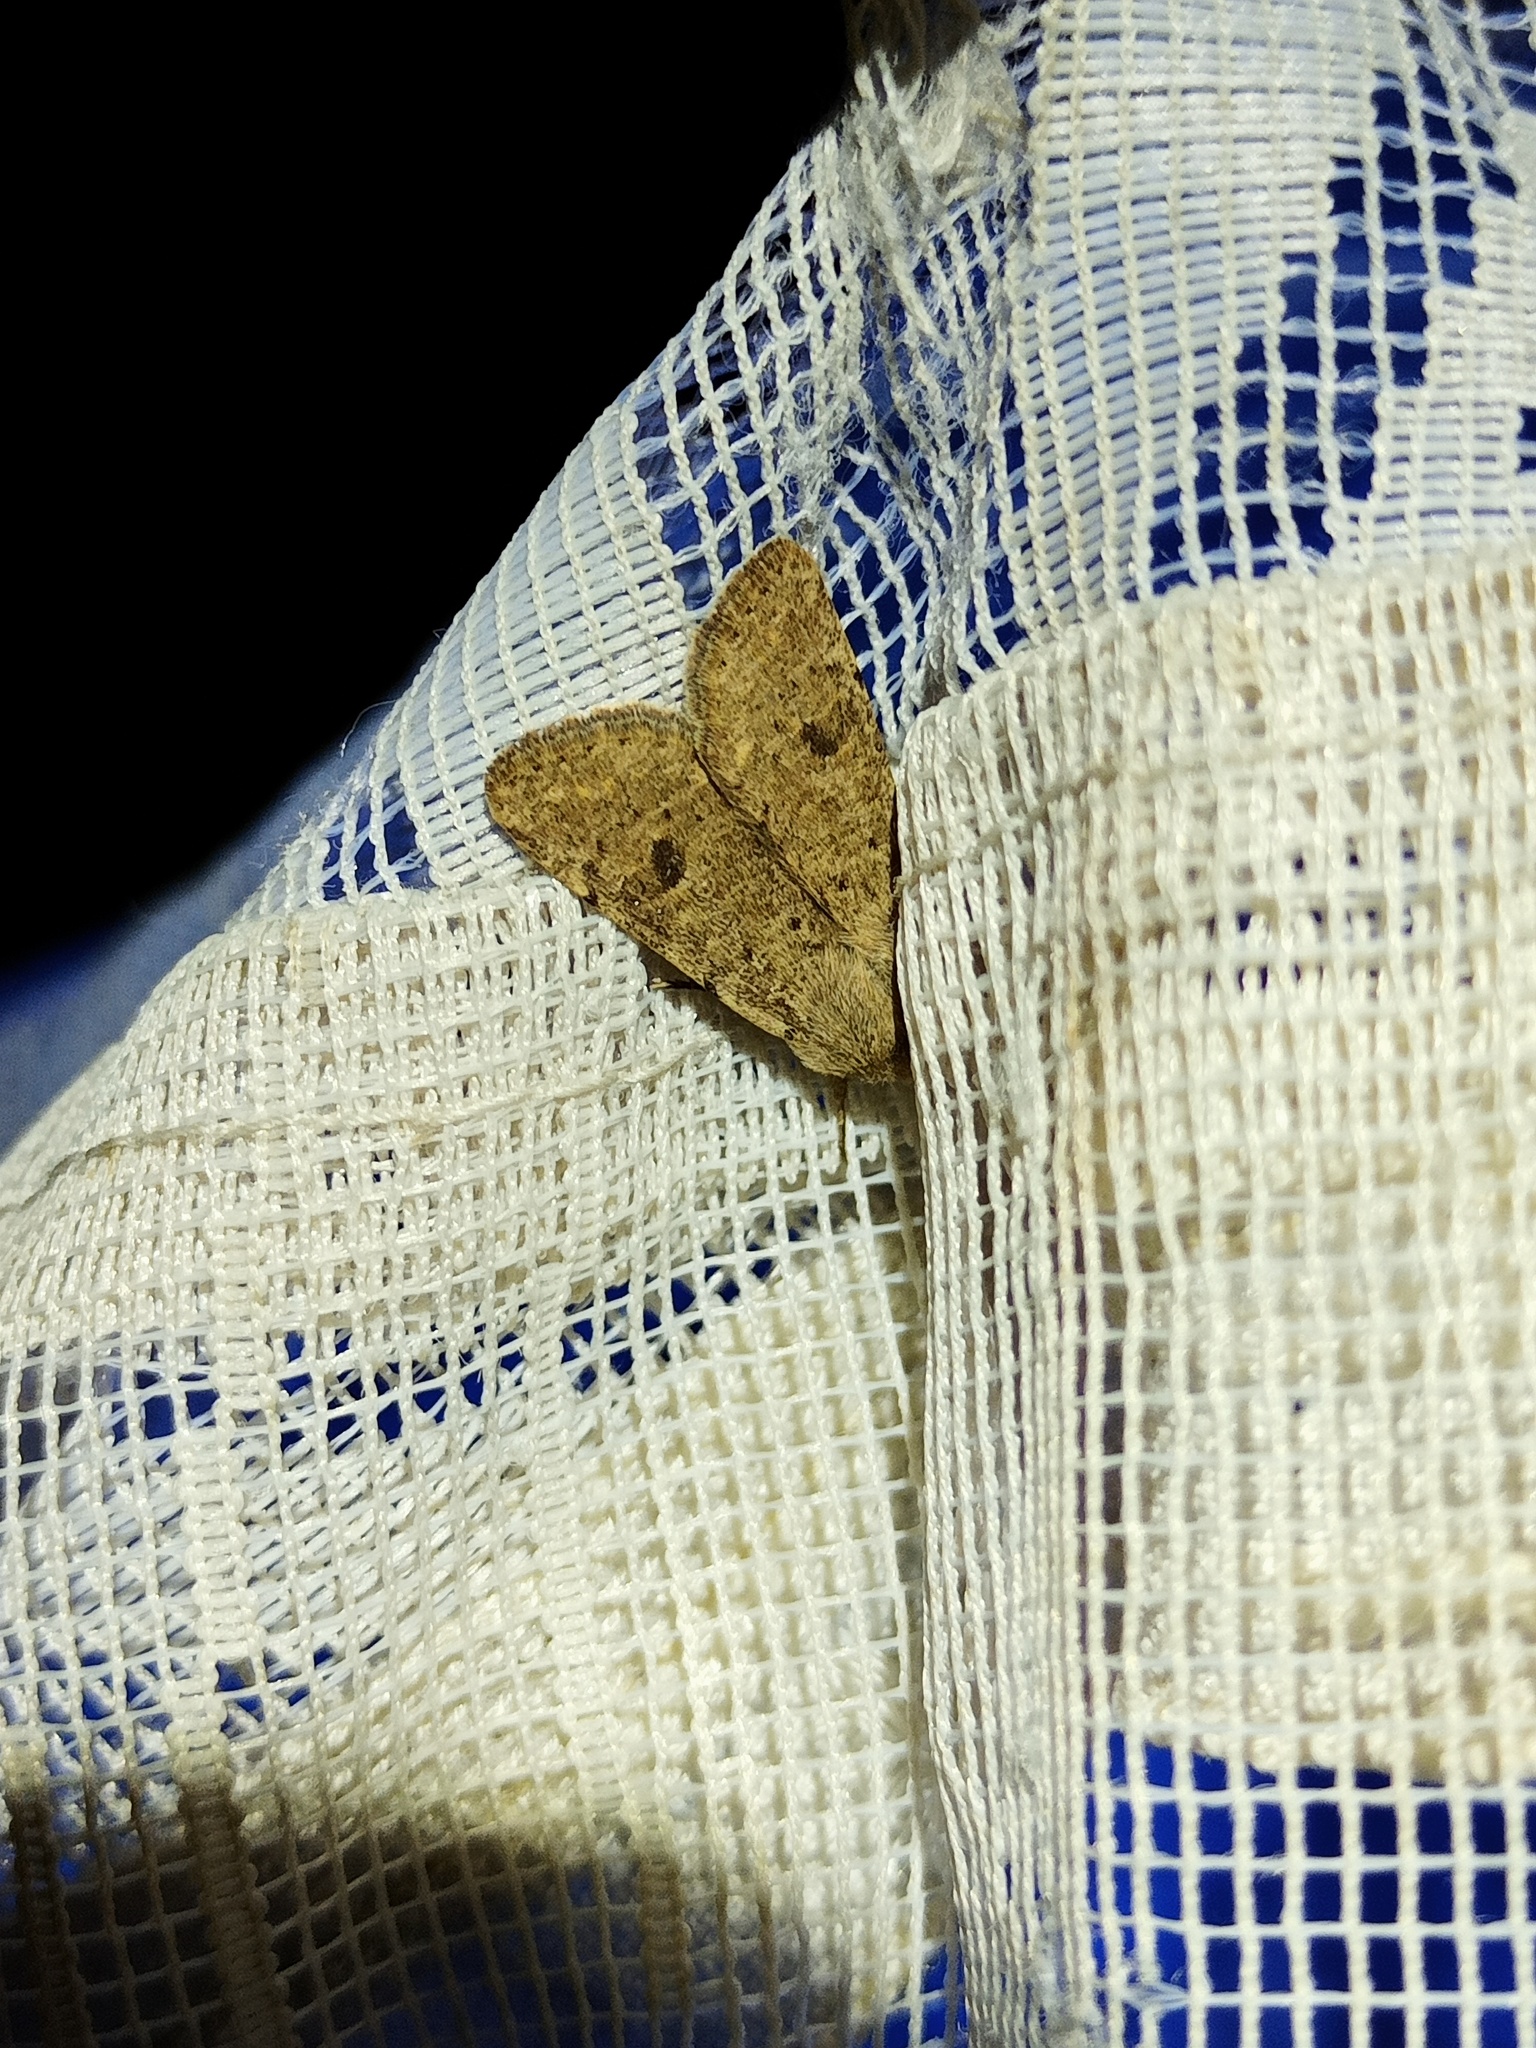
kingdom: Animalia
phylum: Arthropoda
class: Insecta
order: Lepidoptera
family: Noctuidae
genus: Orthosia
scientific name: Orthosia cruda
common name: Small quaker
